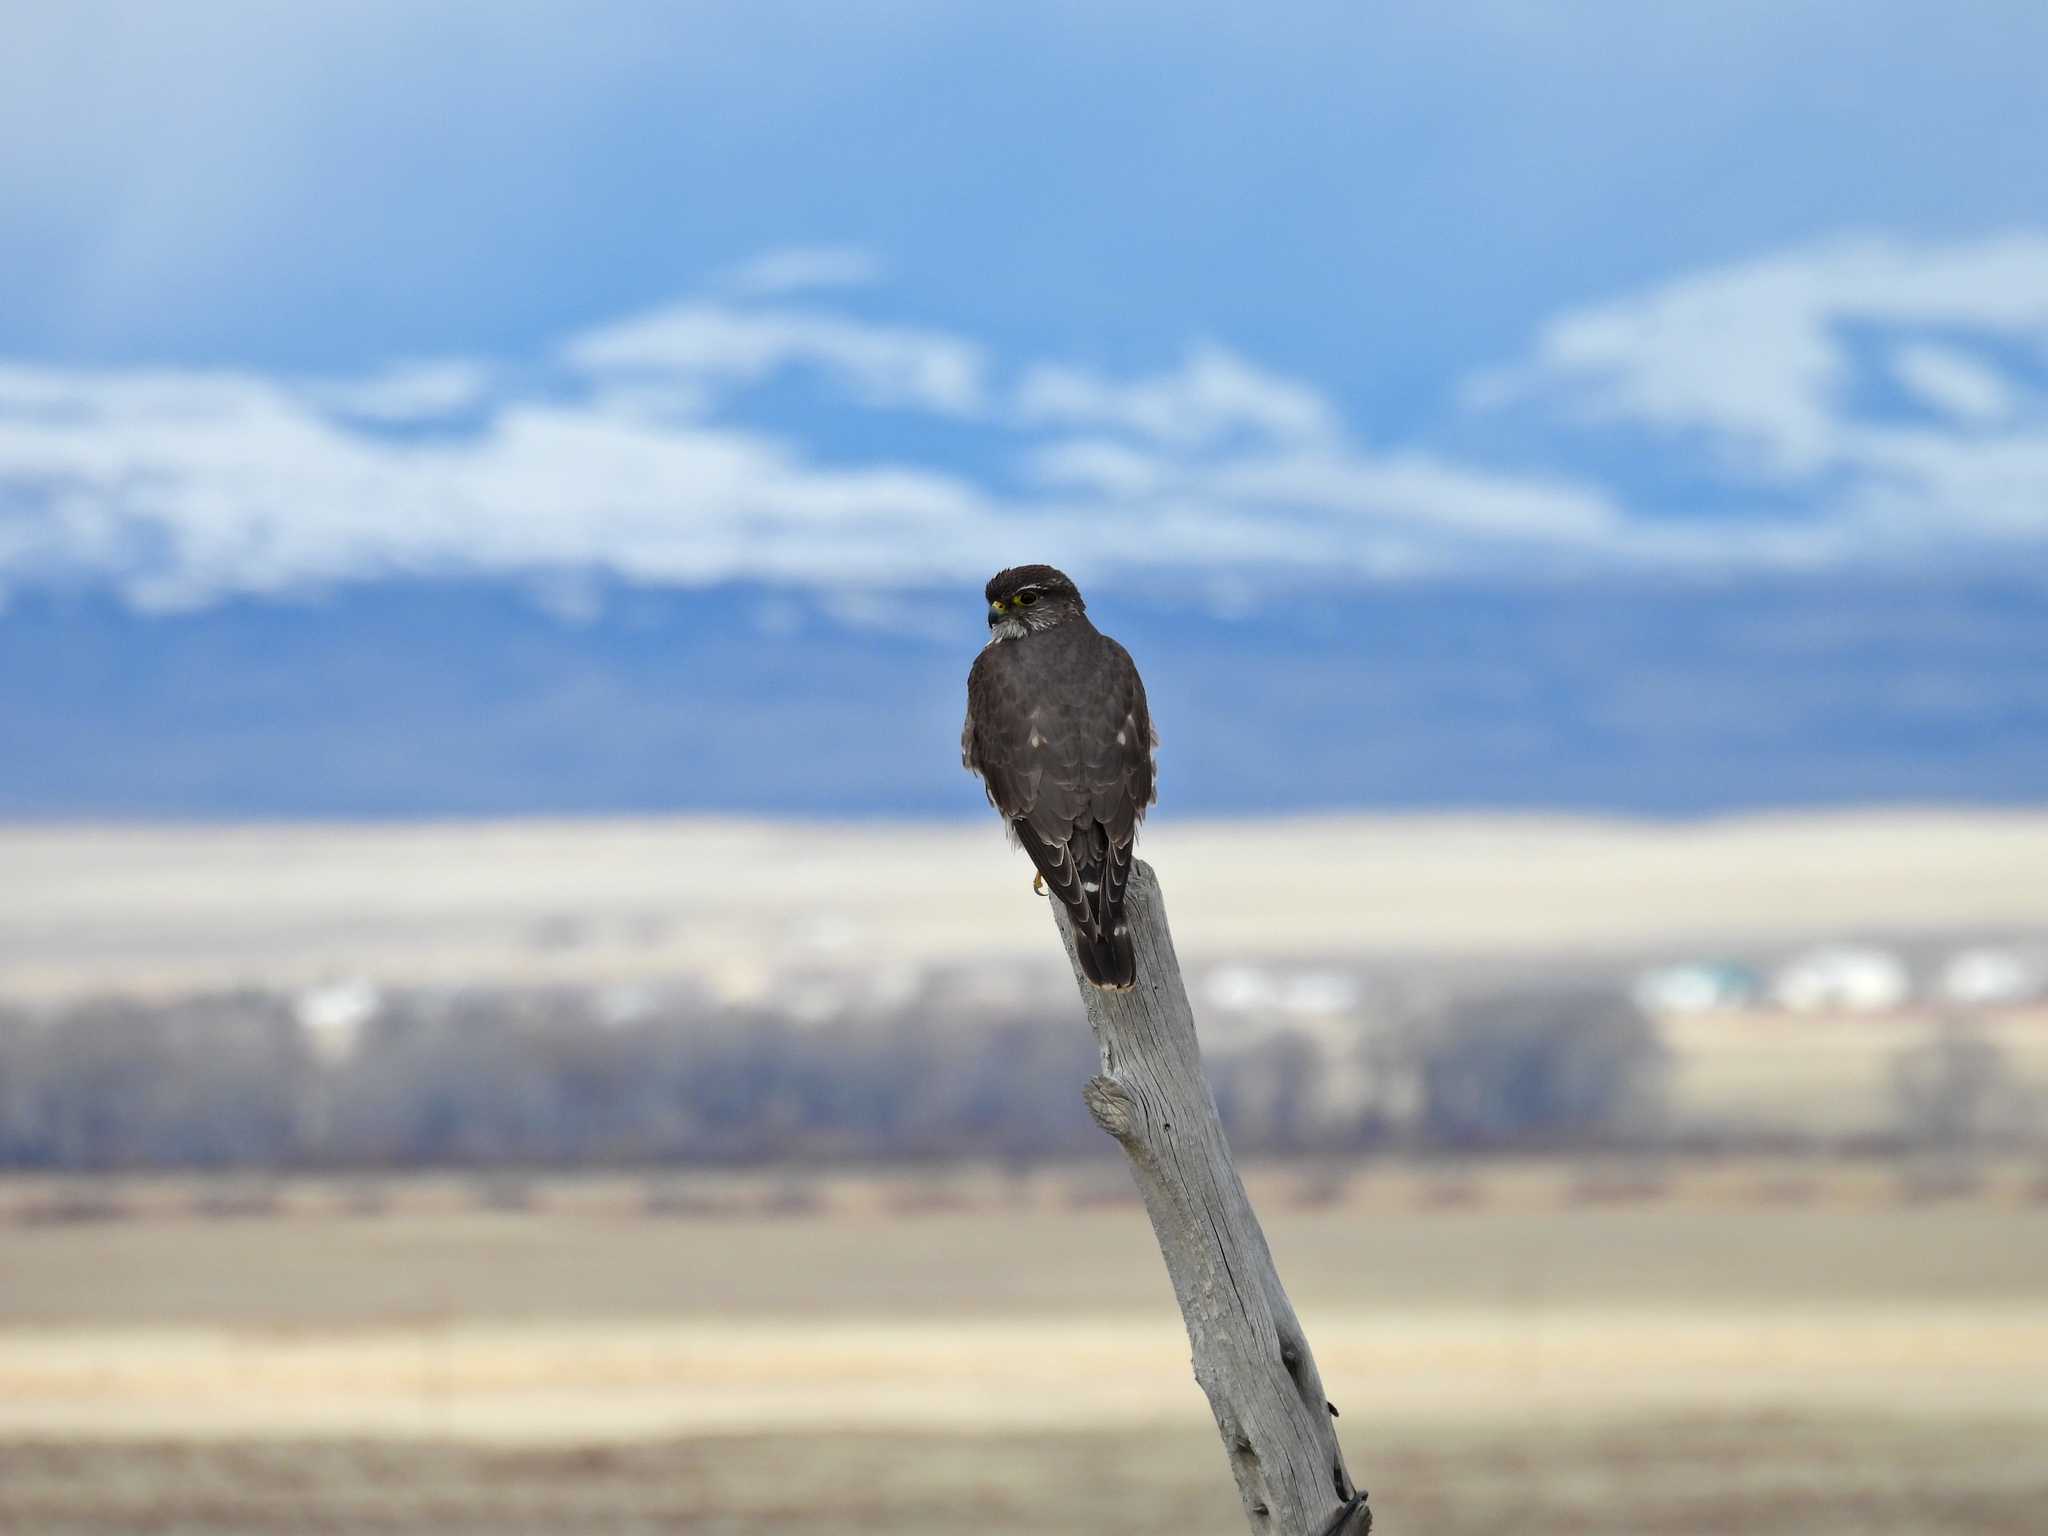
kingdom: Animalia
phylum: Chordata
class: Aves
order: Falconiformes
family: Falconidae
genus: Falco
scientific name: Falco columbarius
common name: Merlin
